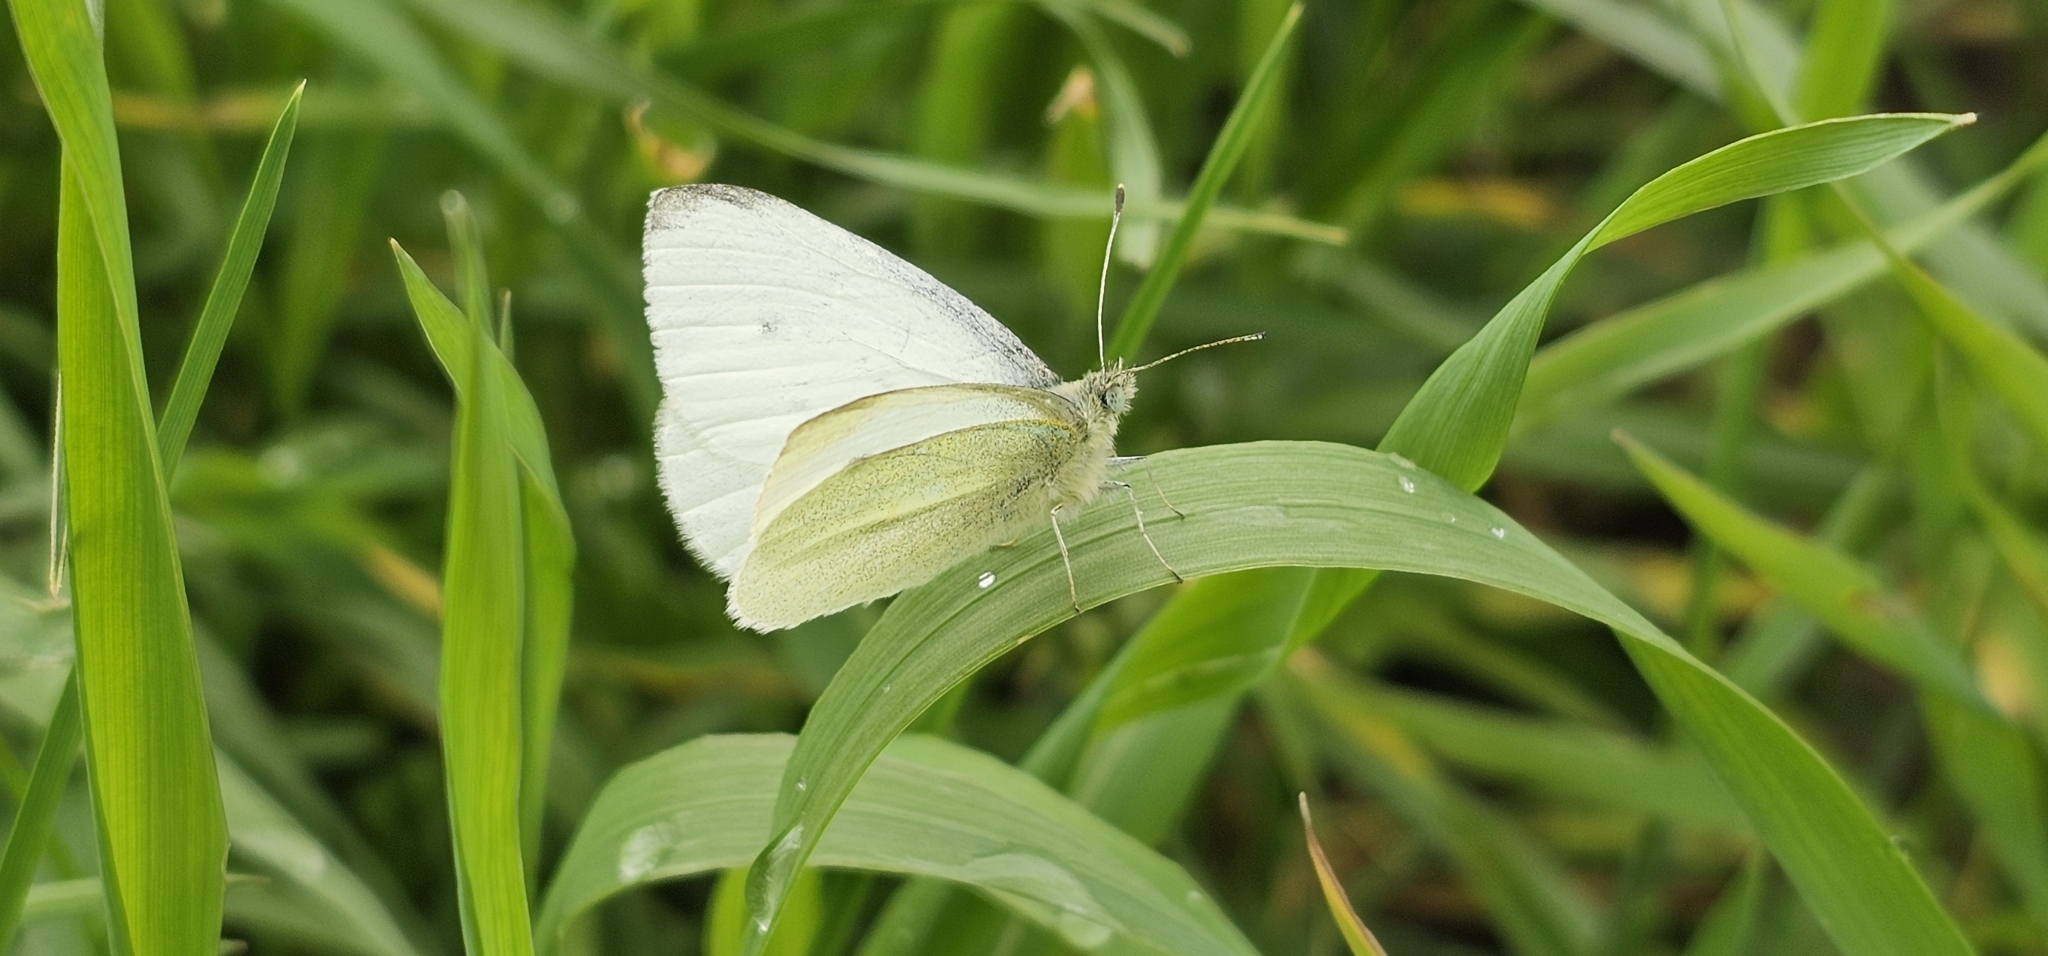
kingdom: Animalia
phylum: Arthropoda
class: Insecta
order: Lepidoptera
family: Pieridae
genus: Pieris
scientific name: Pieris rapae
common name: Small white
